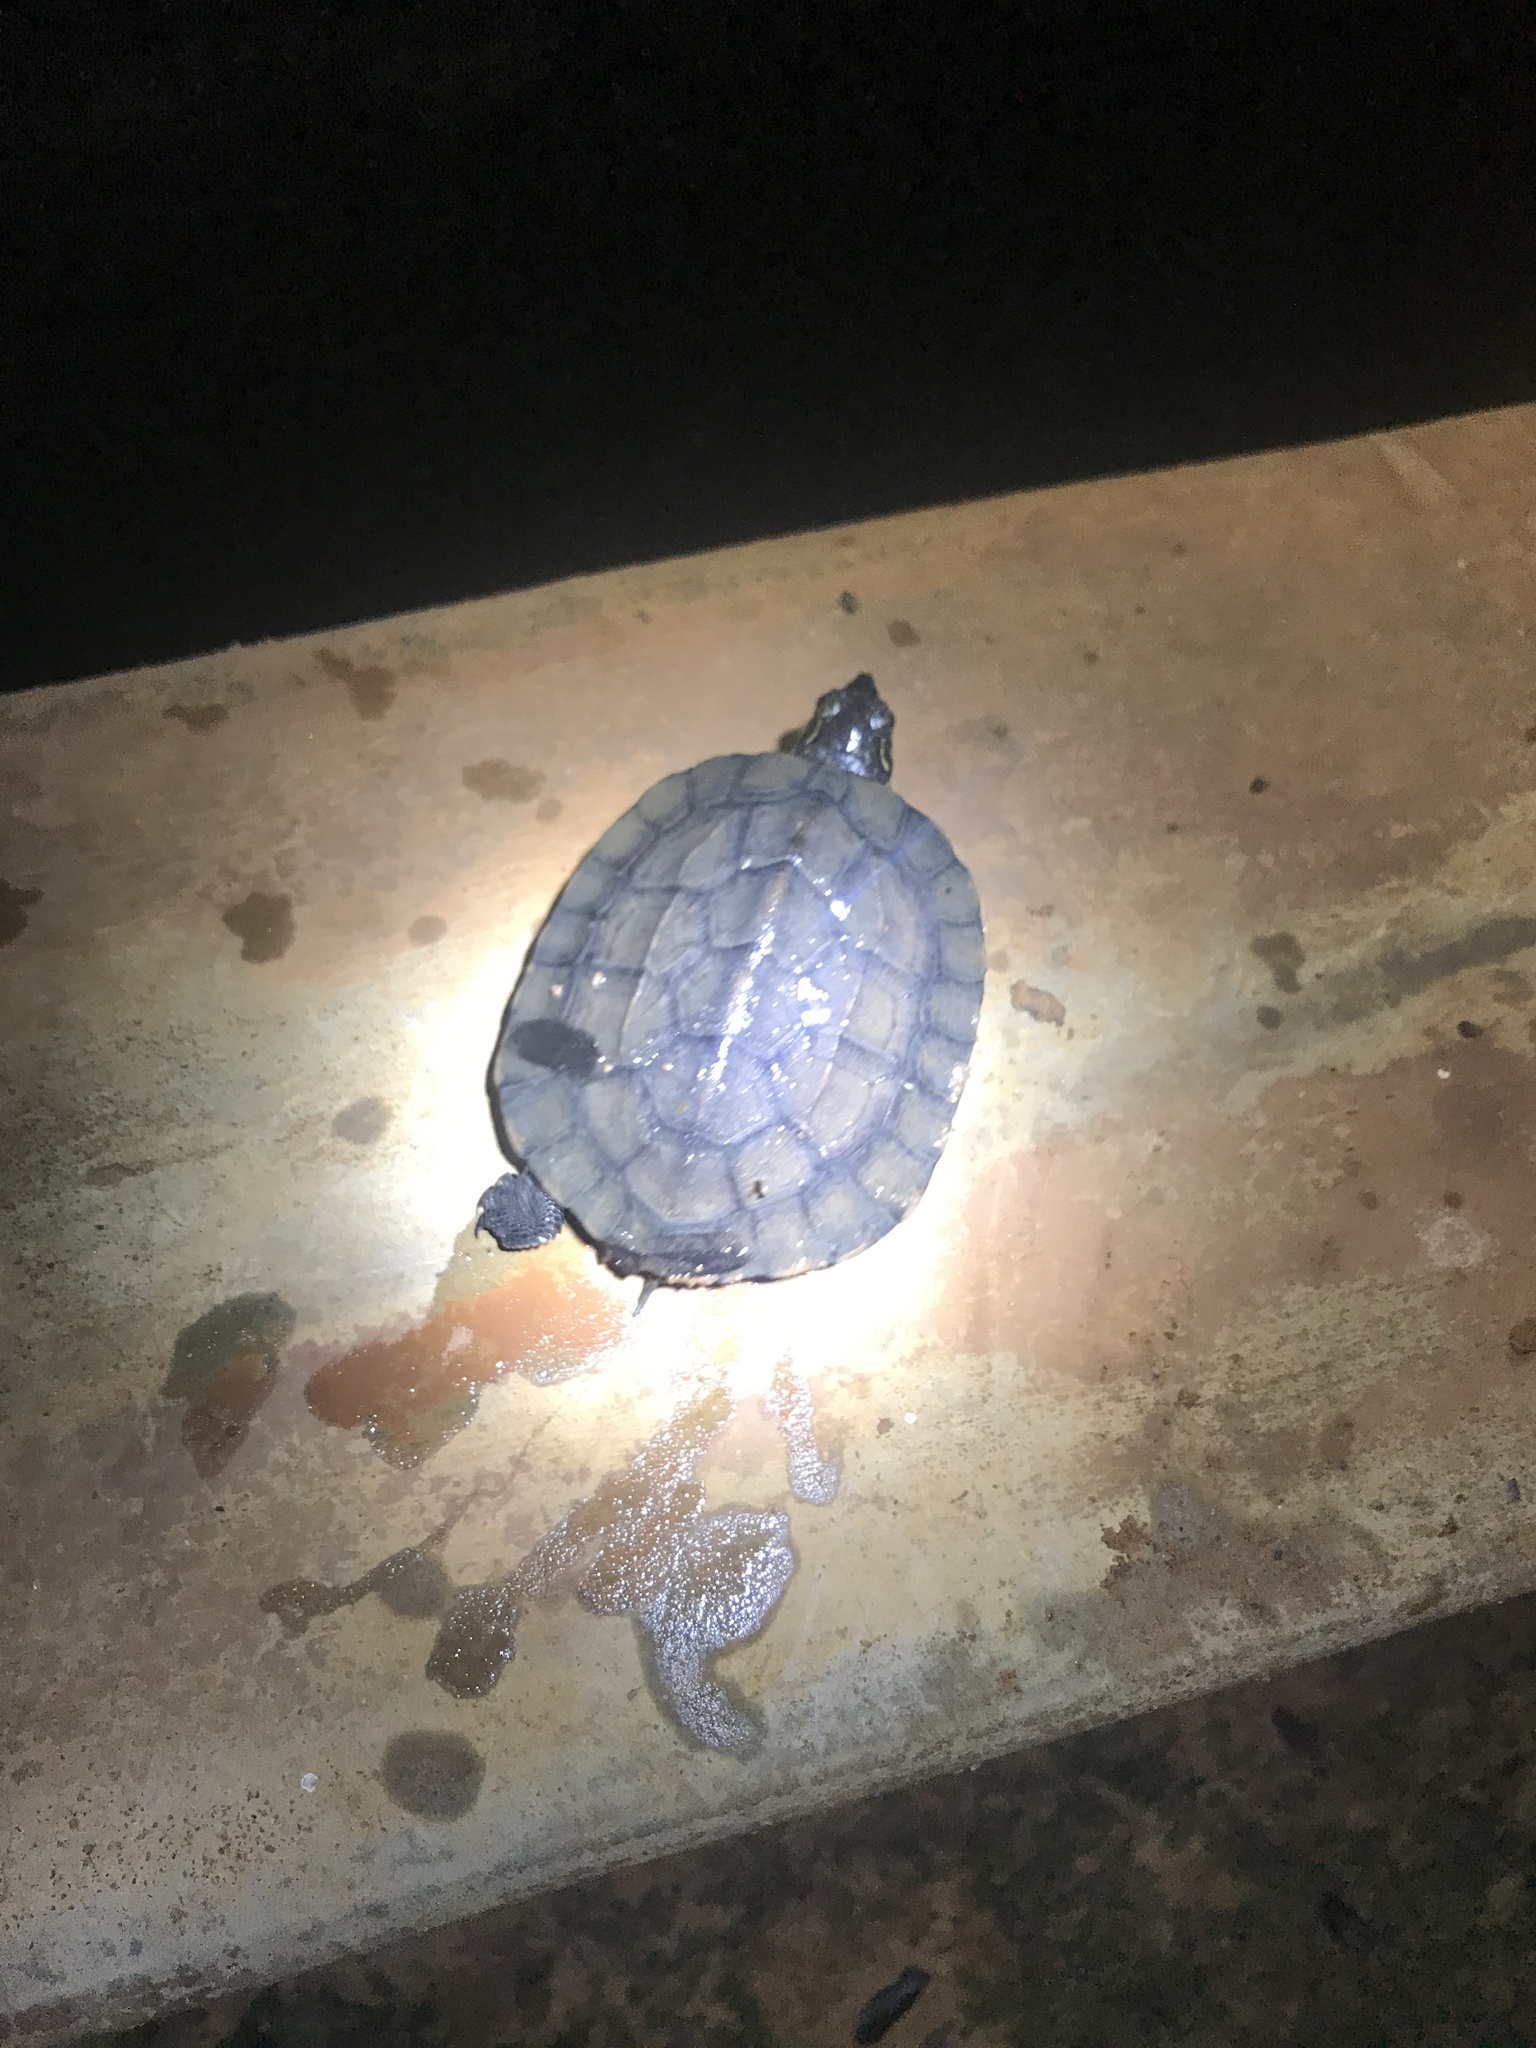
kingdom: Animalia
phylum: Chordata
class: Testudines
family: Geoemydidae
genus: Melanochelys
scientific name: Melanochelys trijuga
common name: Indian black turtle
